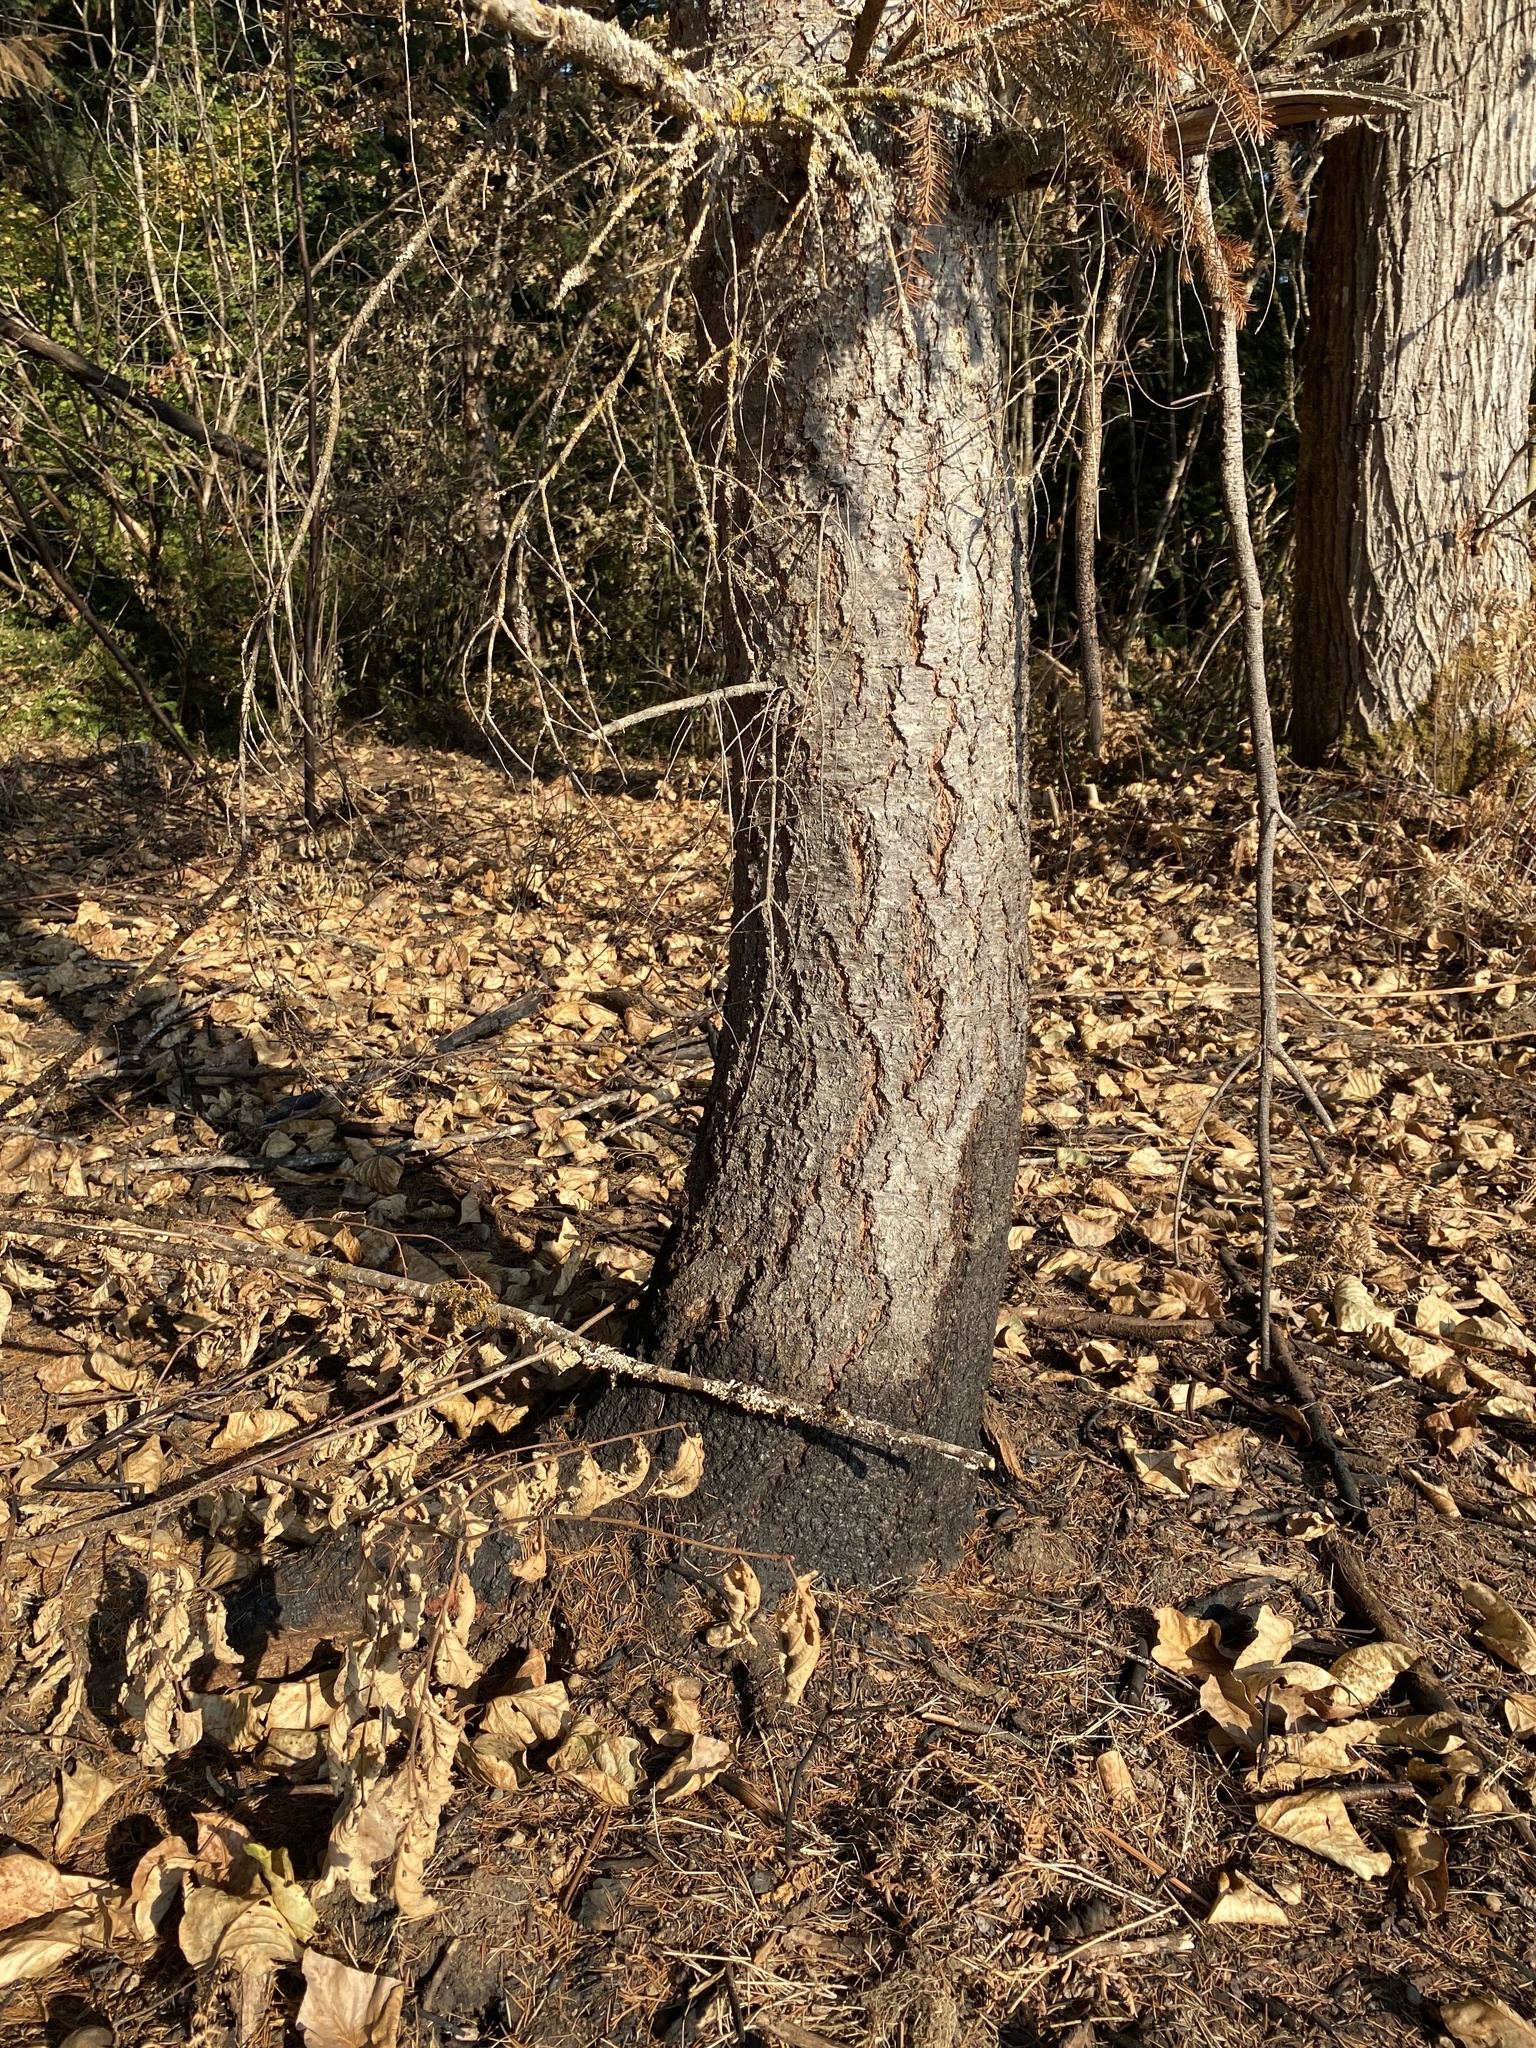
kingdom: Plantae
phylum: Tracheophyta
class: Pinopsida
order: Pinales
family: Pinaceae
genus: Pseudotsuga
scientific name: Pseudotsuga menziesii
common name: Douglas fir
